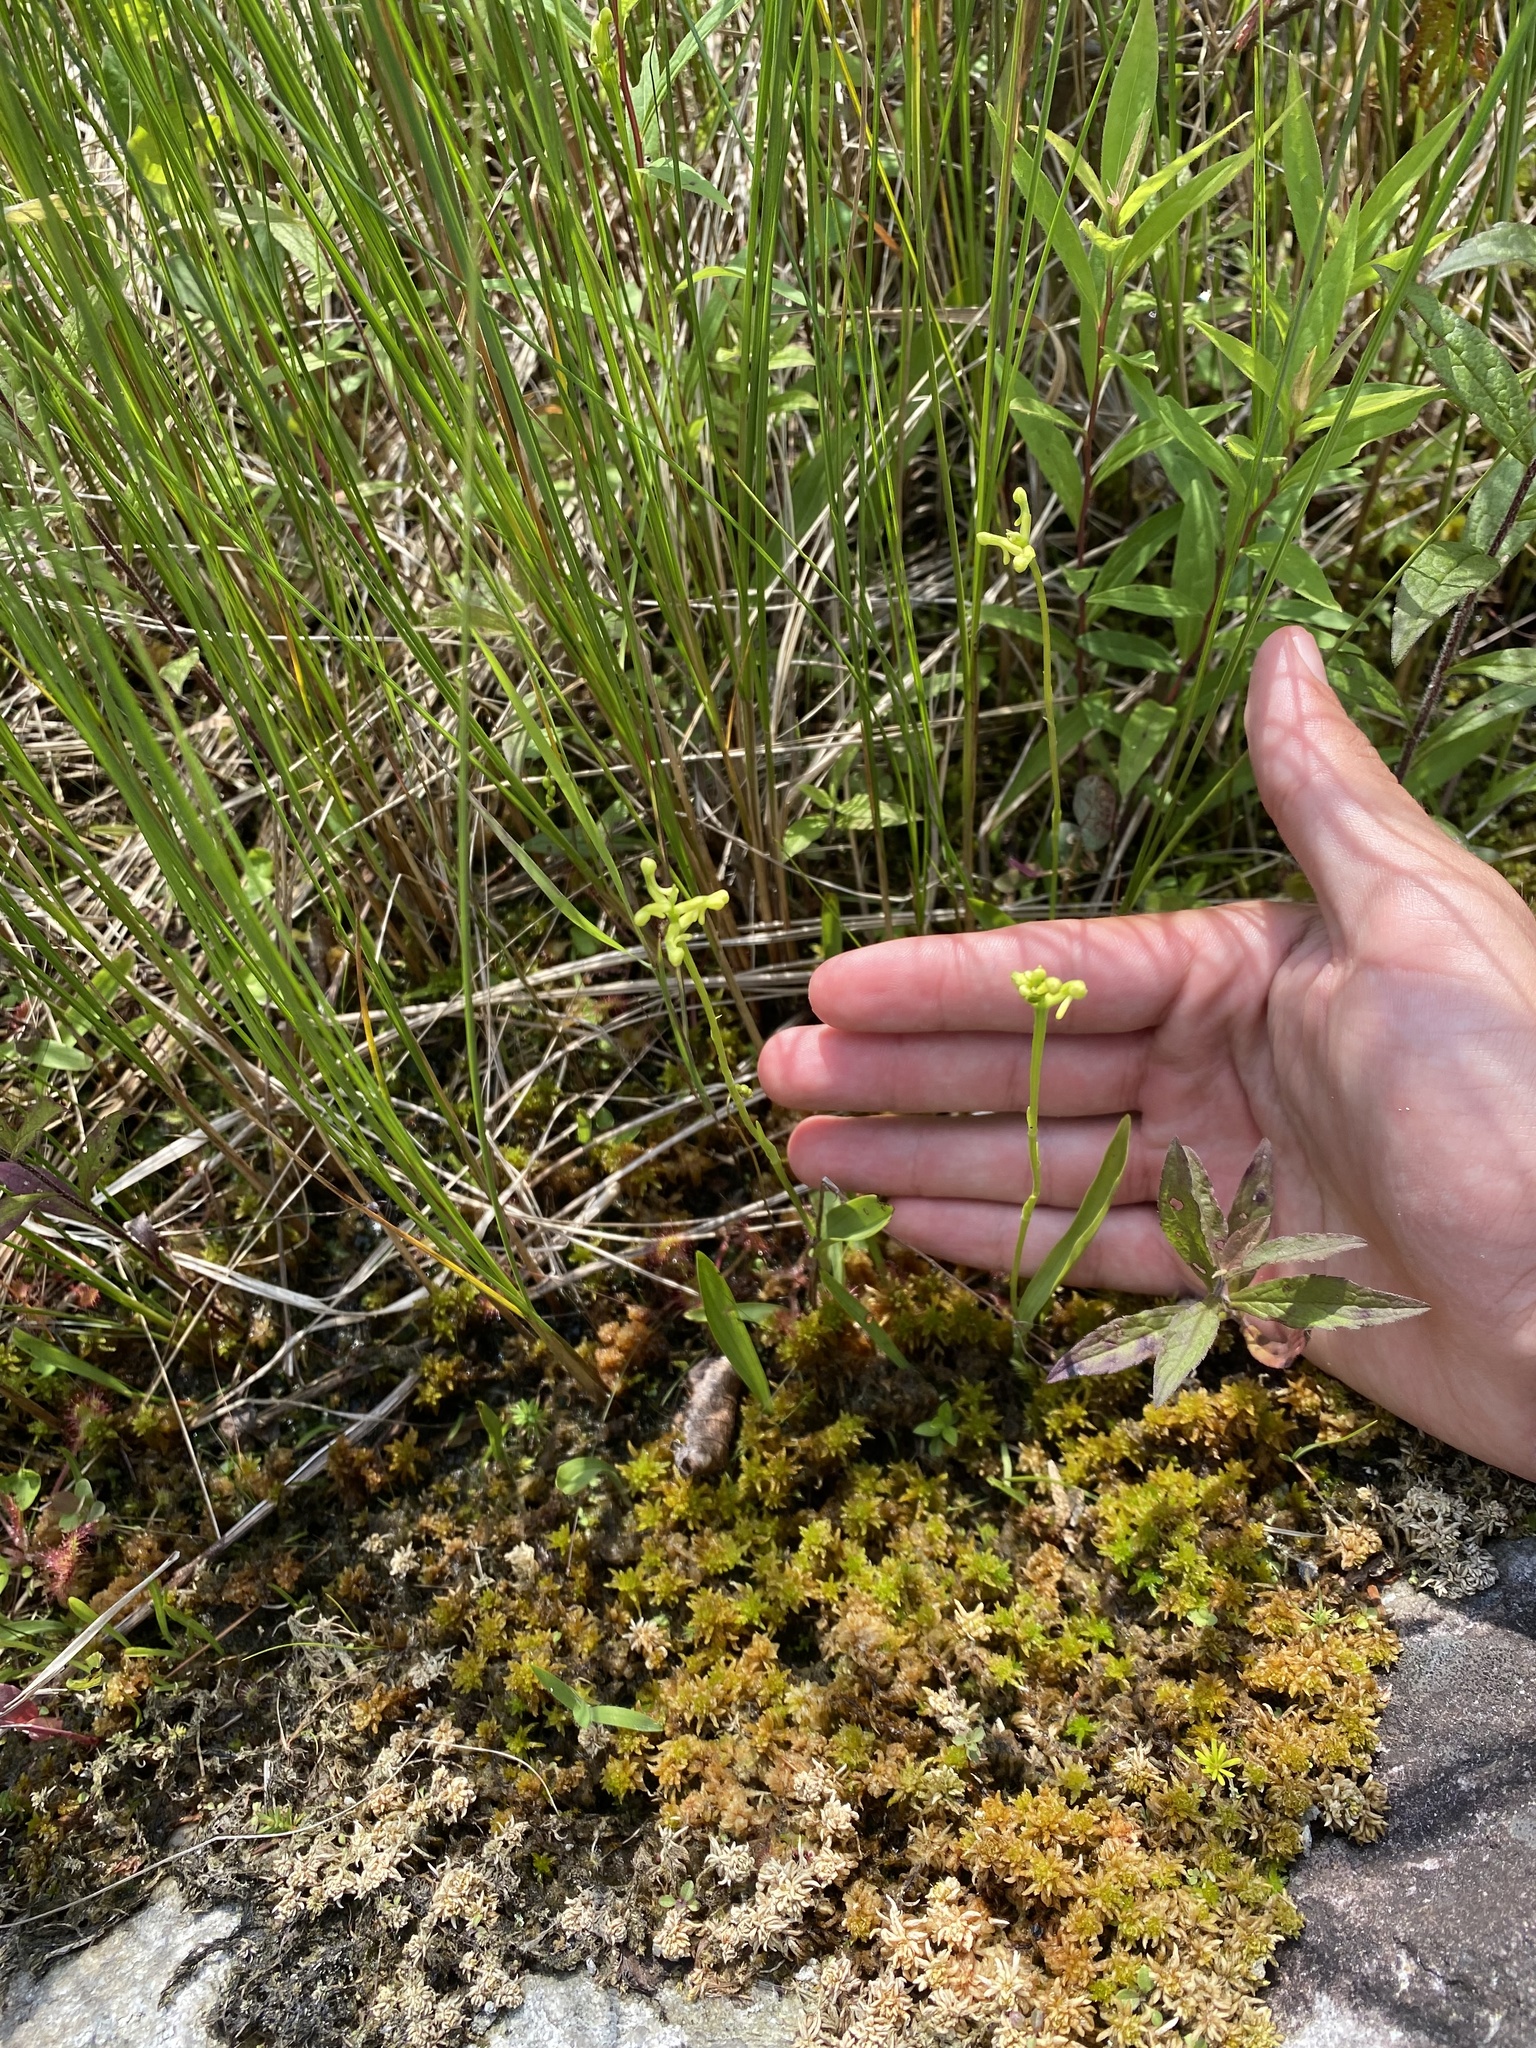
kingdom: Plantae
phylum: Tracheophyta
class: Liliopsida
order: Asparagales
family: Orchidaceae
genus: Platanthera
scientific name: Platanthera clavellata
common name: Club-spur orchid
